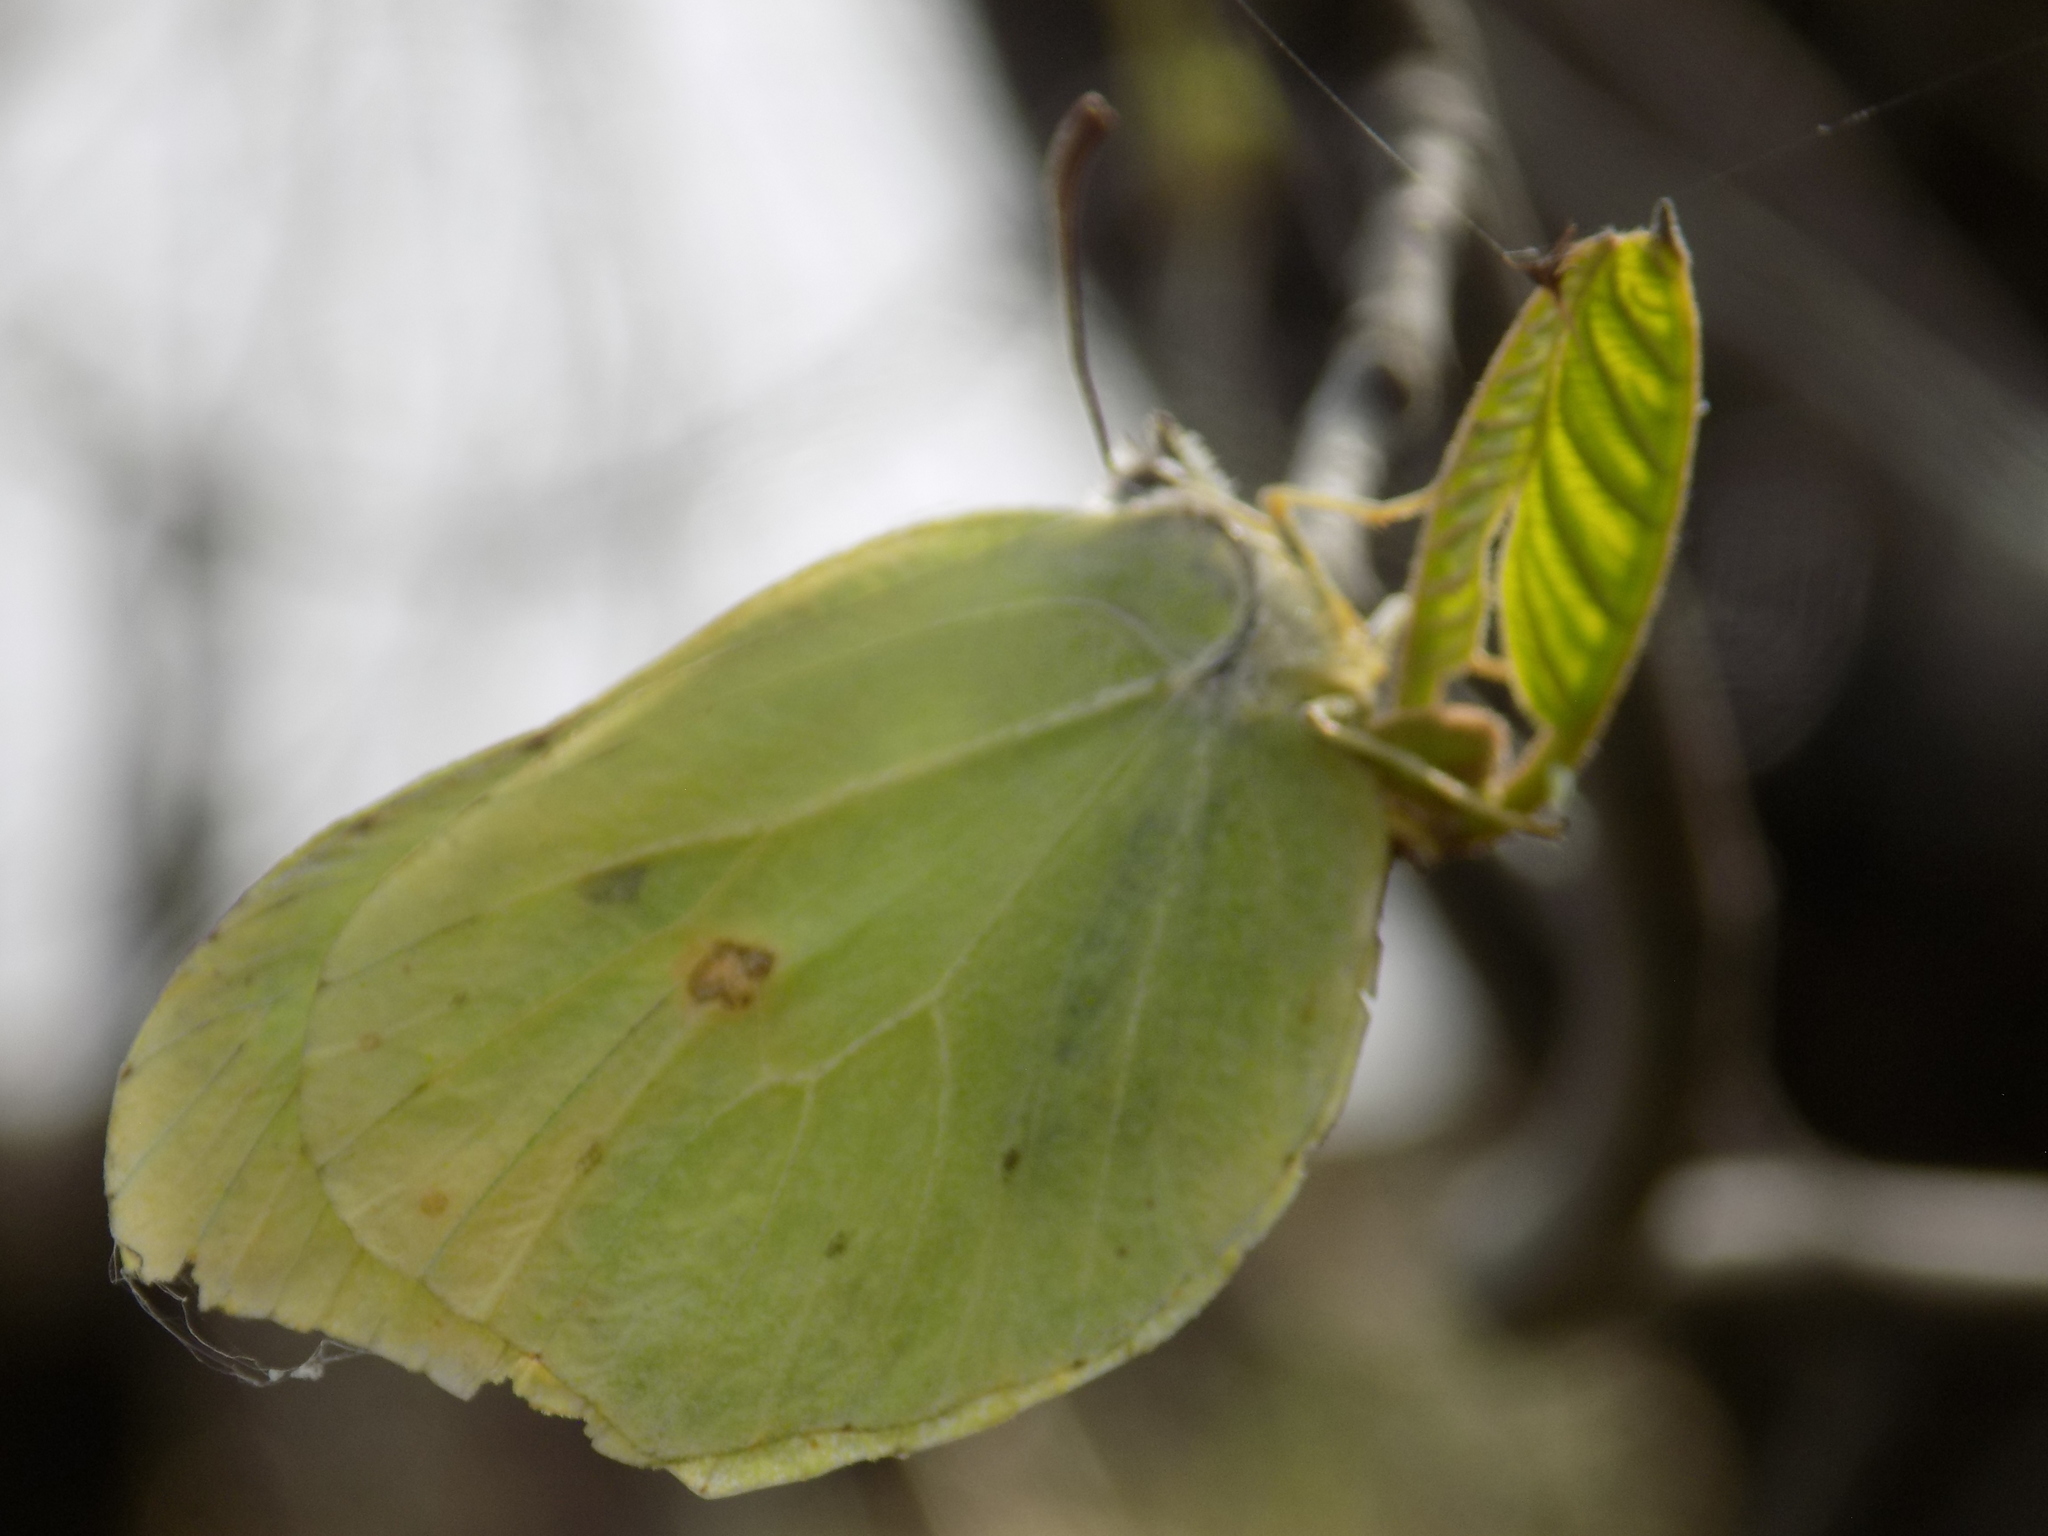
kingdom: Animalia
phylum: Arthropoda
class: Insecta
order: Lepidoptera
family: Pieridae
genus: Gonepteryx
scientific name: Gonepteryx rhamni
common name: Brimstone
